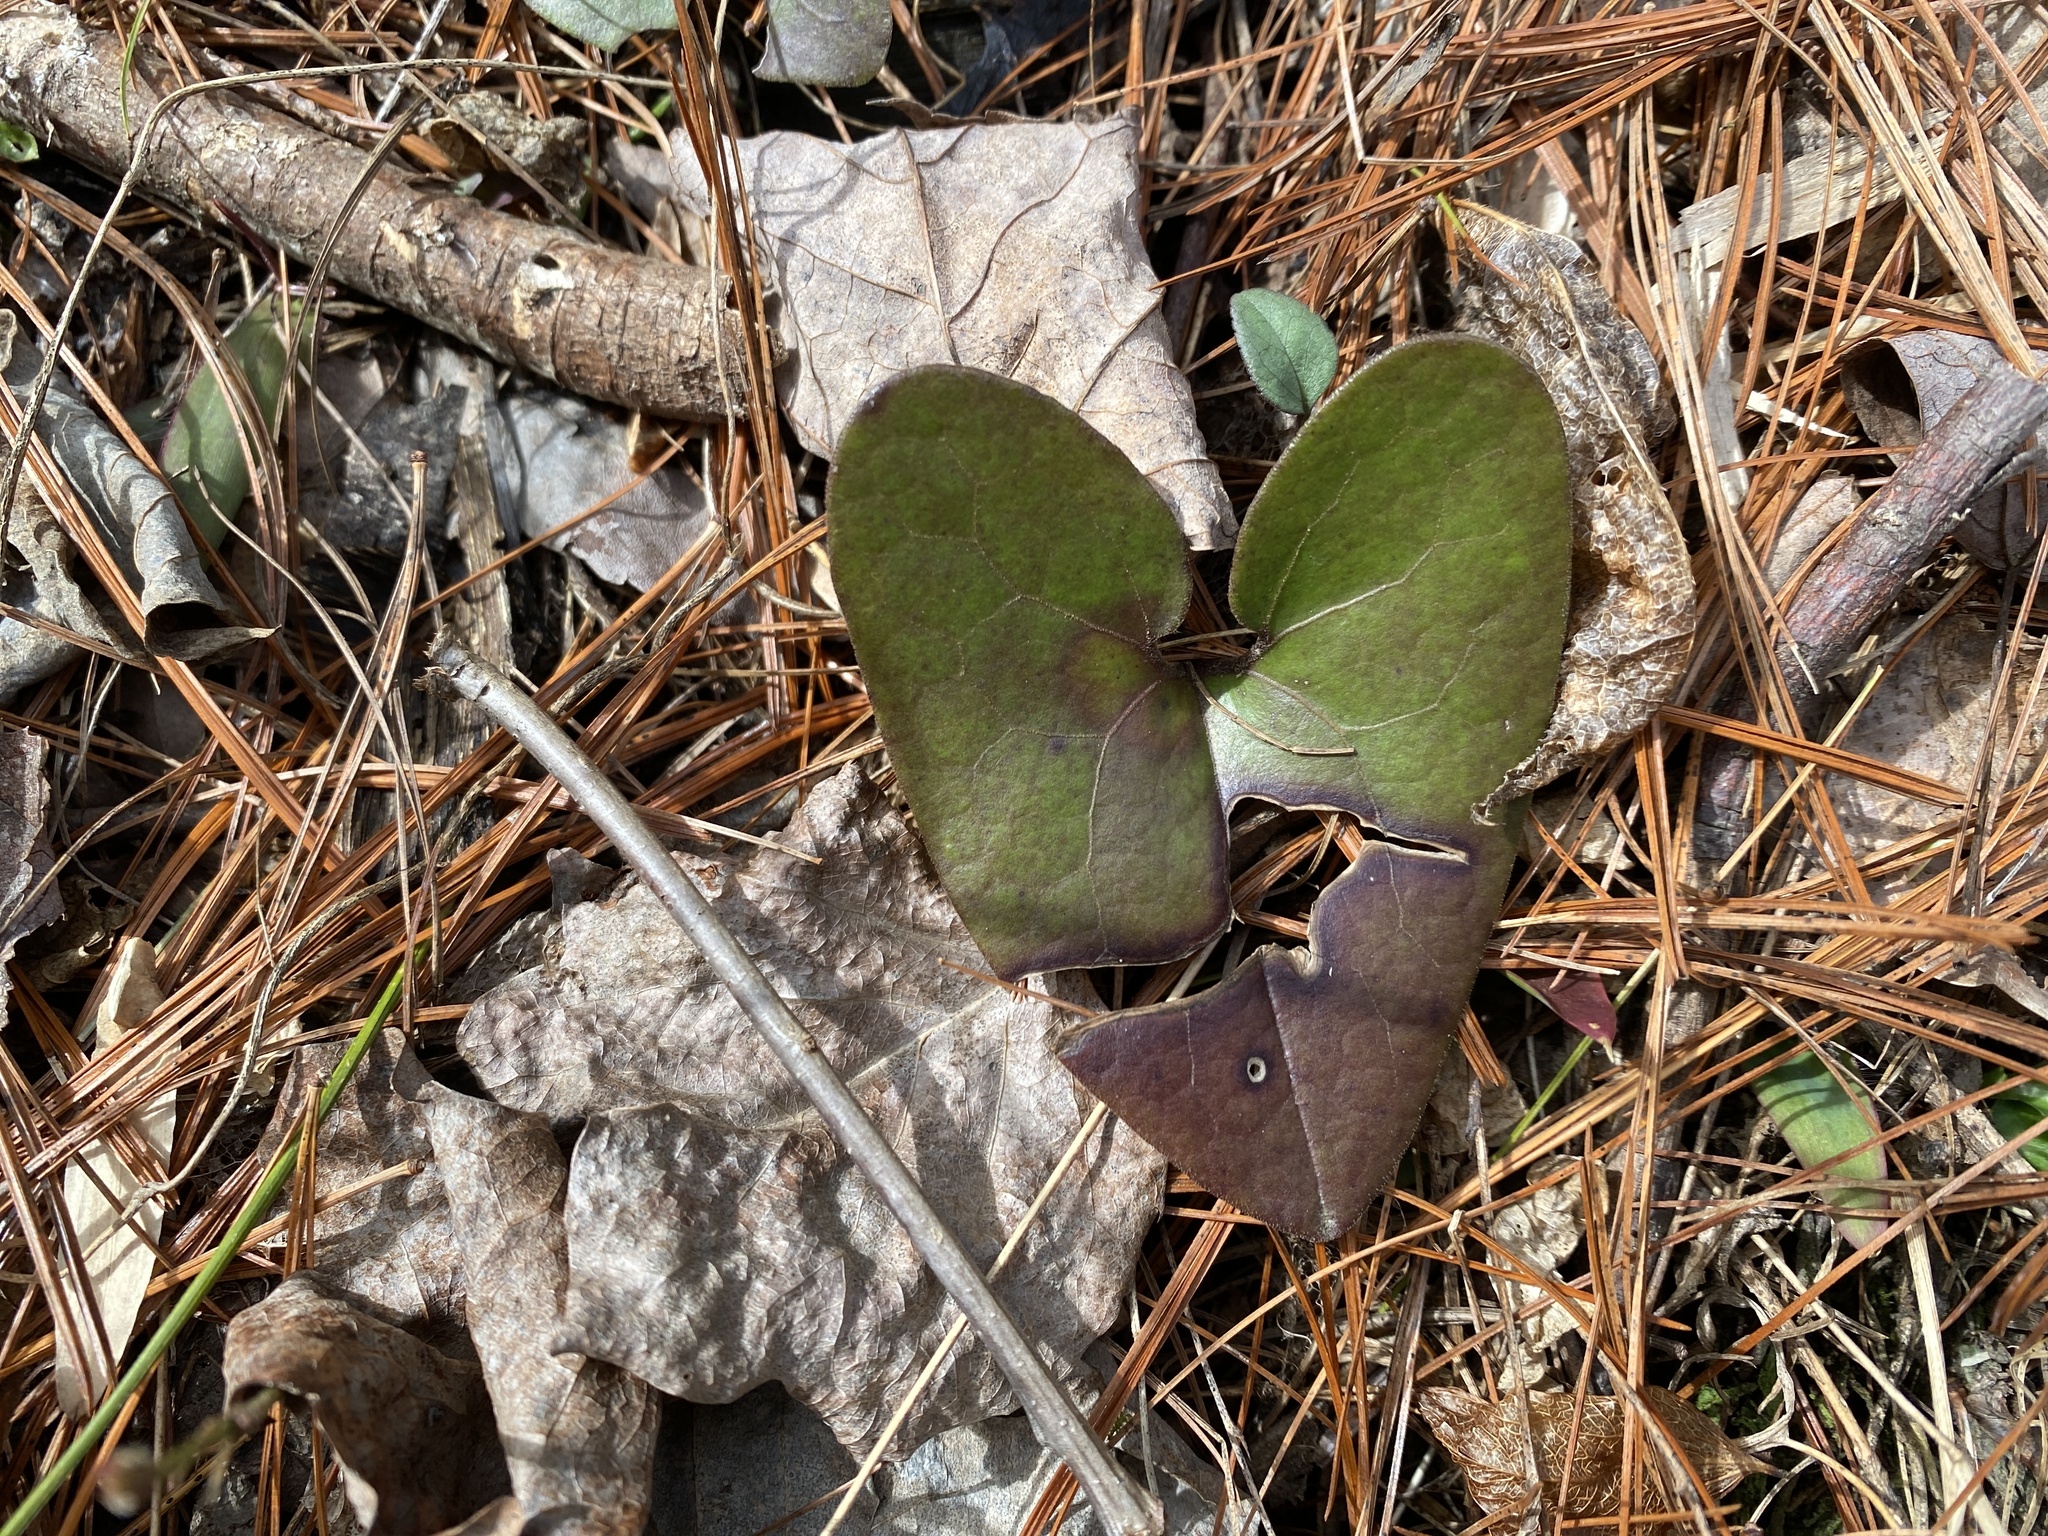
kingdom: Plantae
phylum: Tracheophyta
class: Magnoliopsida
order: Piperales
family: Aristolochiaceae
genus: Hexastylis
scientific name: Hexastylis arifolia
